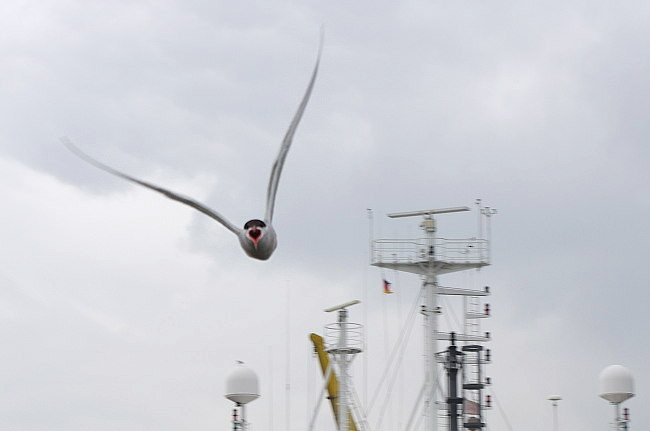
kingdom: Animalia
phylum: Chordata
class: Aves
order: Charadriiformes
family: Laridae
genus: Sterna
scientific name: Sterna hirundo
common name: Common tern
